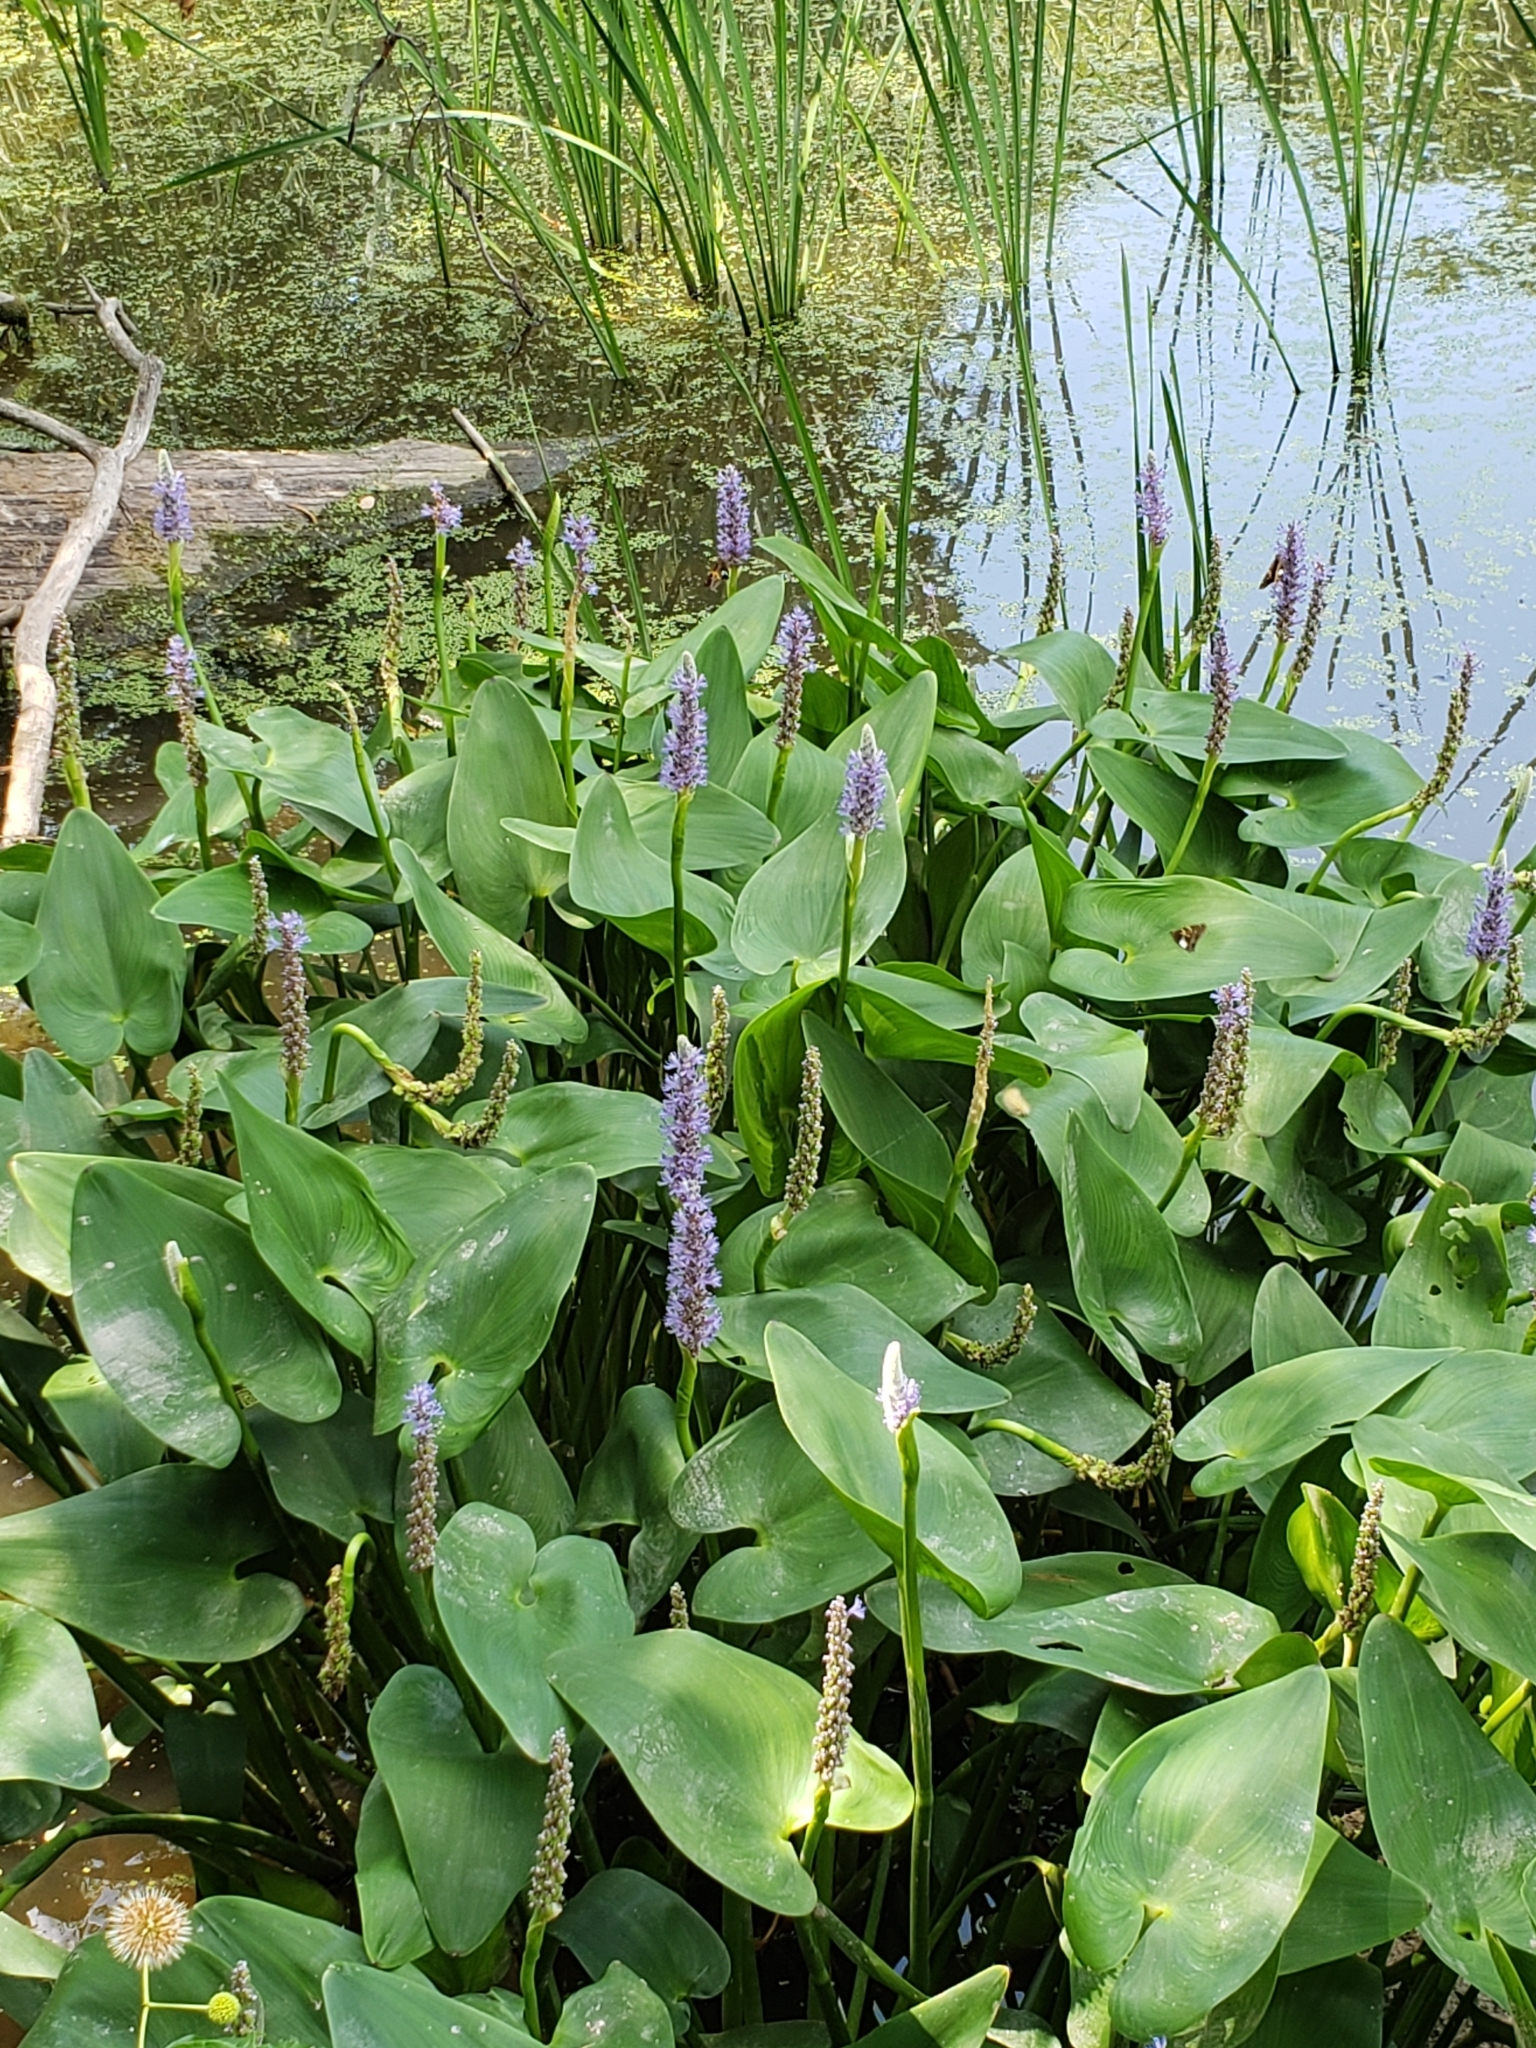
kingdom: Plantae
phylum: Tracheophyta
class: Liliopsida
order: Commelinales
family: Pontederiaceae
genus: Pontederia
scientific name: Pontederia cordata
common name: Pickerelweed
